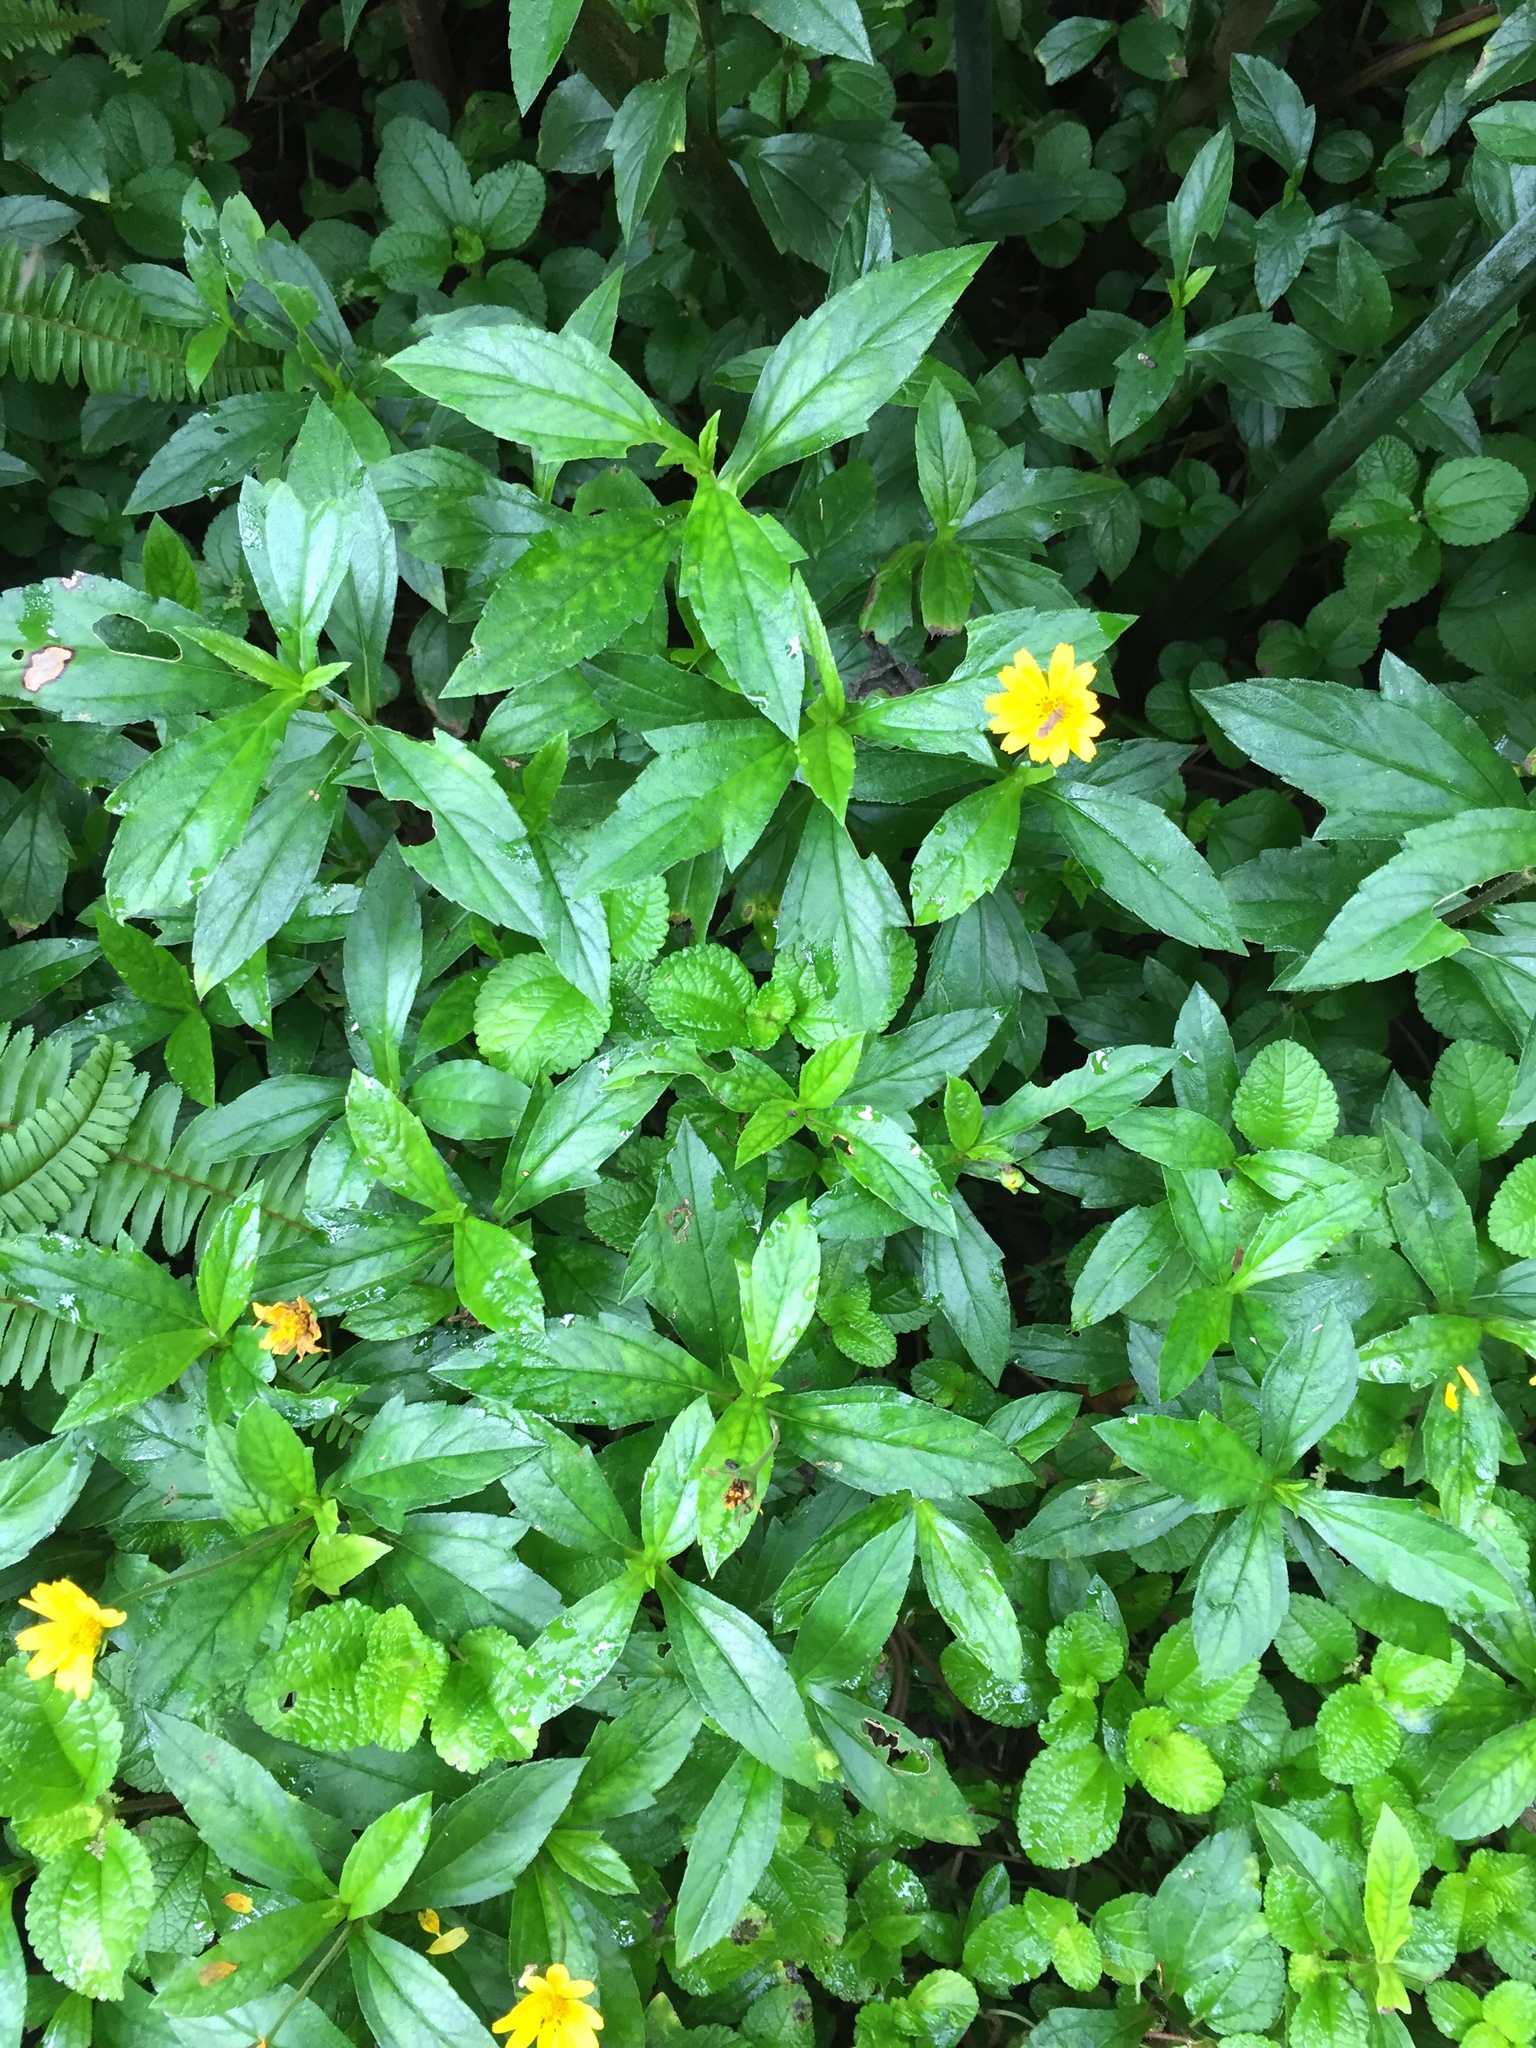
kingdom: Plantae
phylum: Tracheophyta
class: Magnoliopsida
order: Asterales
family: Asteraceae
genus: Sphagneticola
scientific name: Sphagneticola trilobata
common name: Bay biscayne creeping-oxeye
